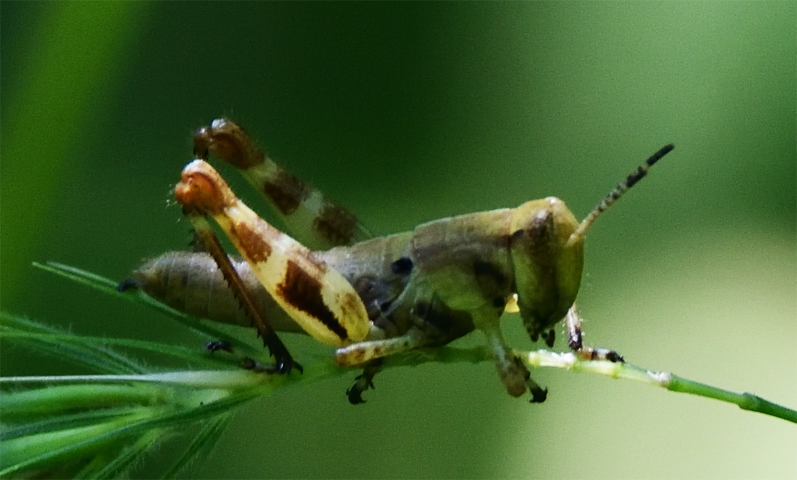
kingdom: Animalia
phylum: Arthropoda
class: Insecta
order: Orthoptera
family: Acrididae
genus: Melanoplus
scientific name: Melanoplus walshii
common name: Walsh's locust
